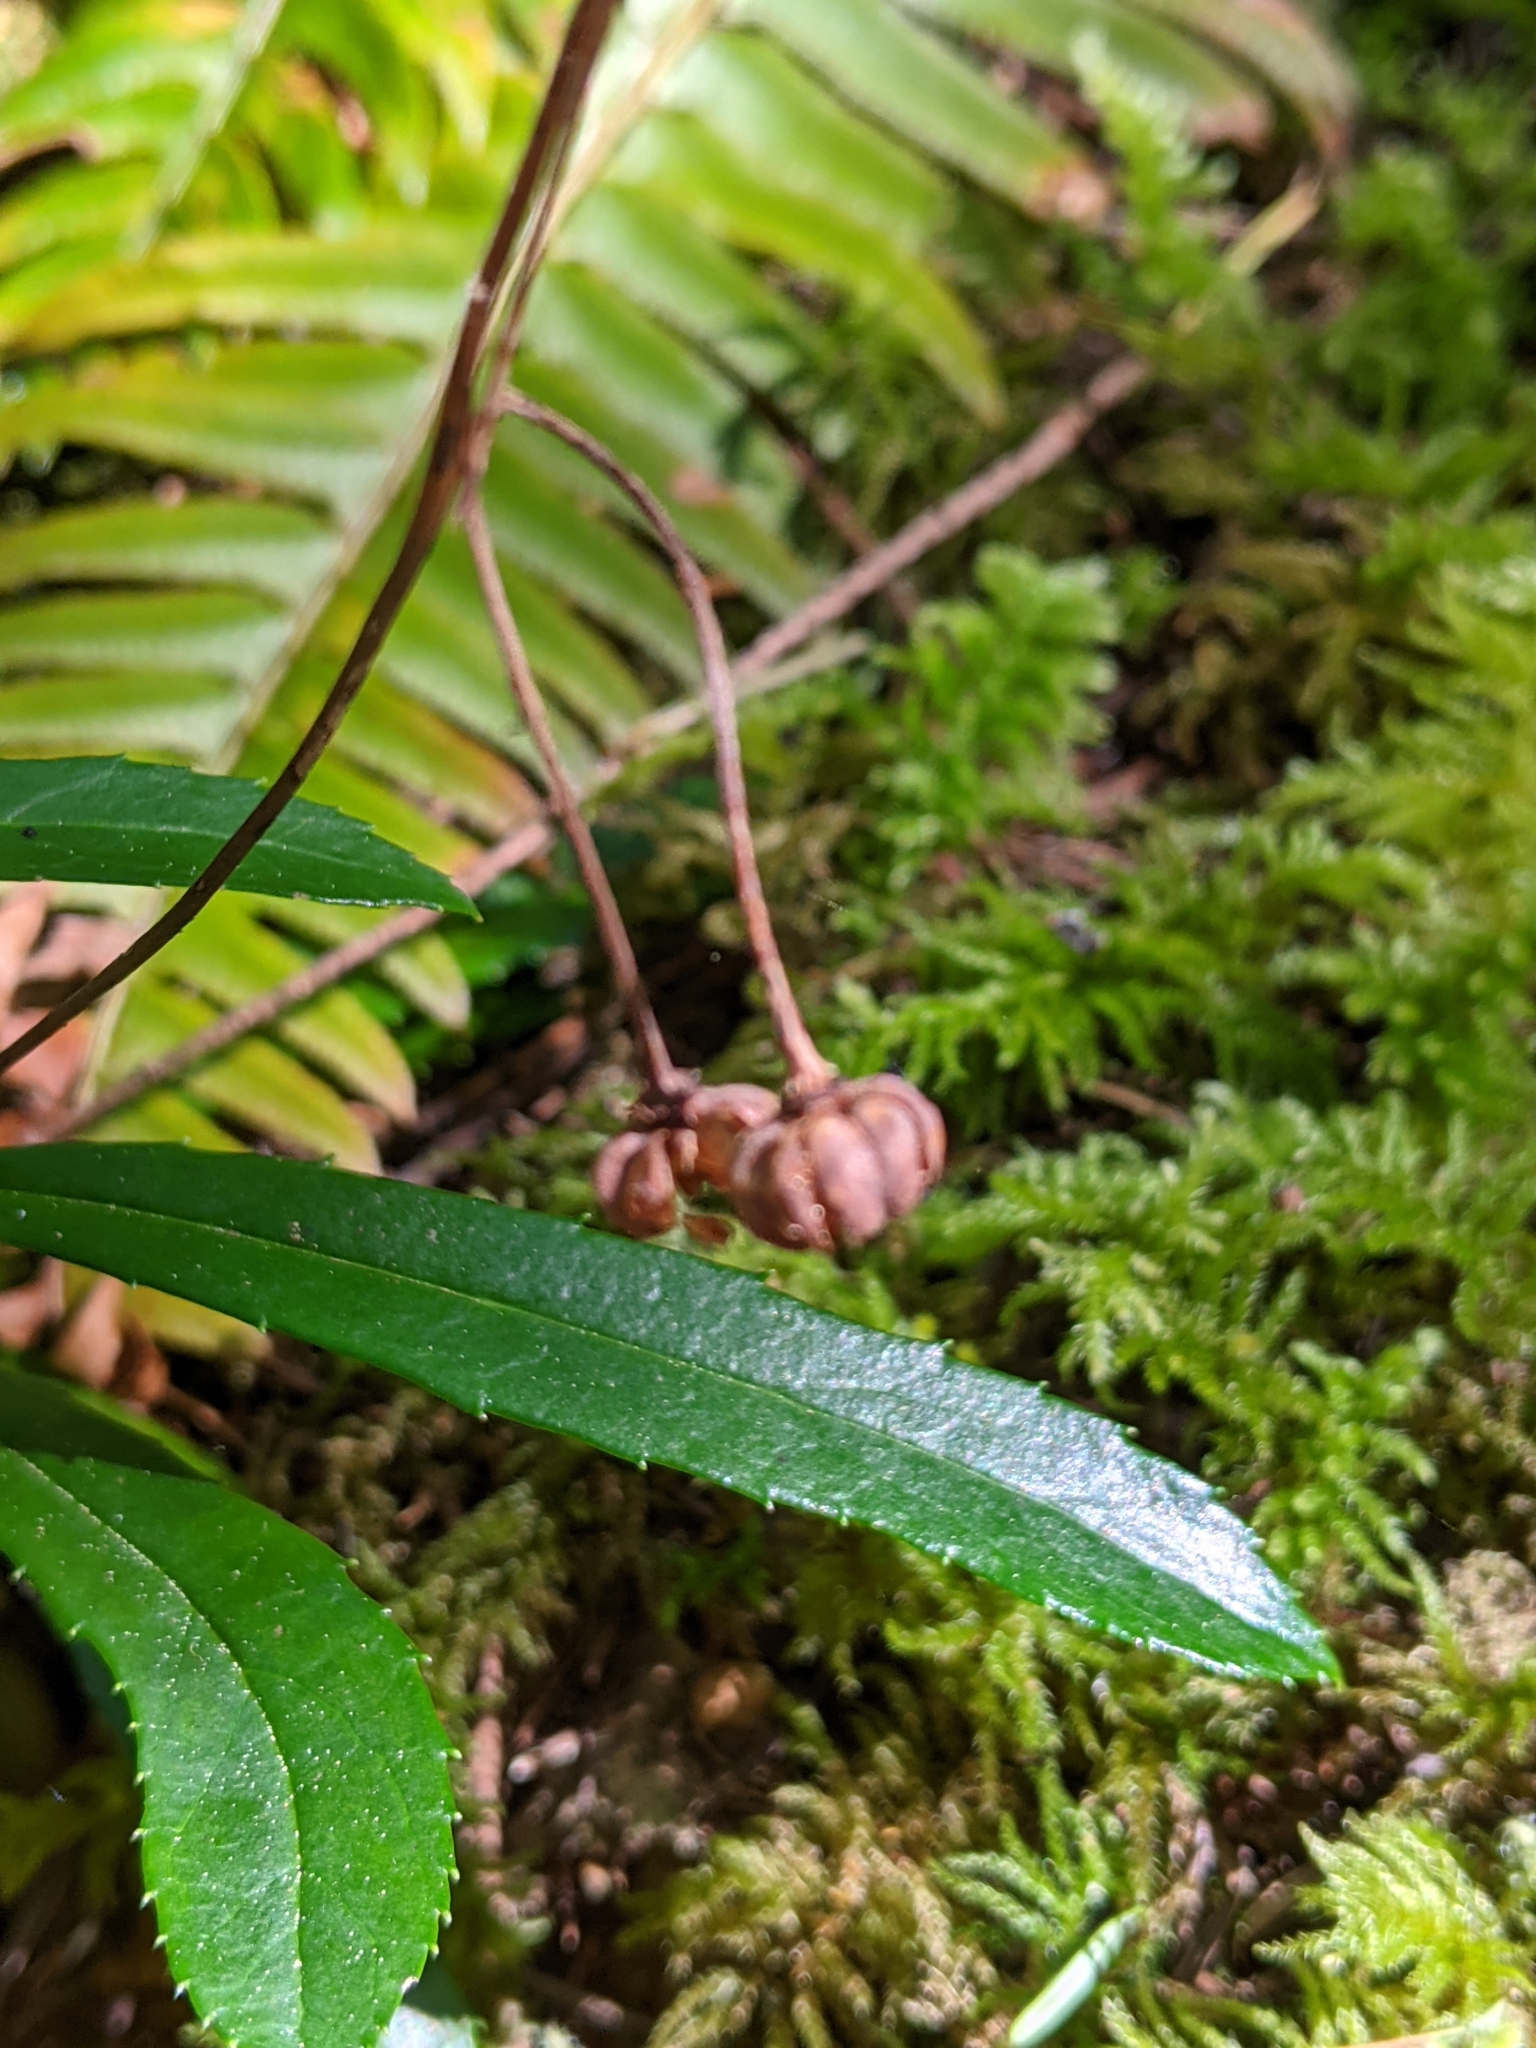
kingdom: Plantae
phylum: Tracheophyta
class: Magnoliopsida
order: Ericales
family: Ericaceae
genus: Chimaphila
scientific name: Chimaphila umbellata
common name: Pipsissewa
